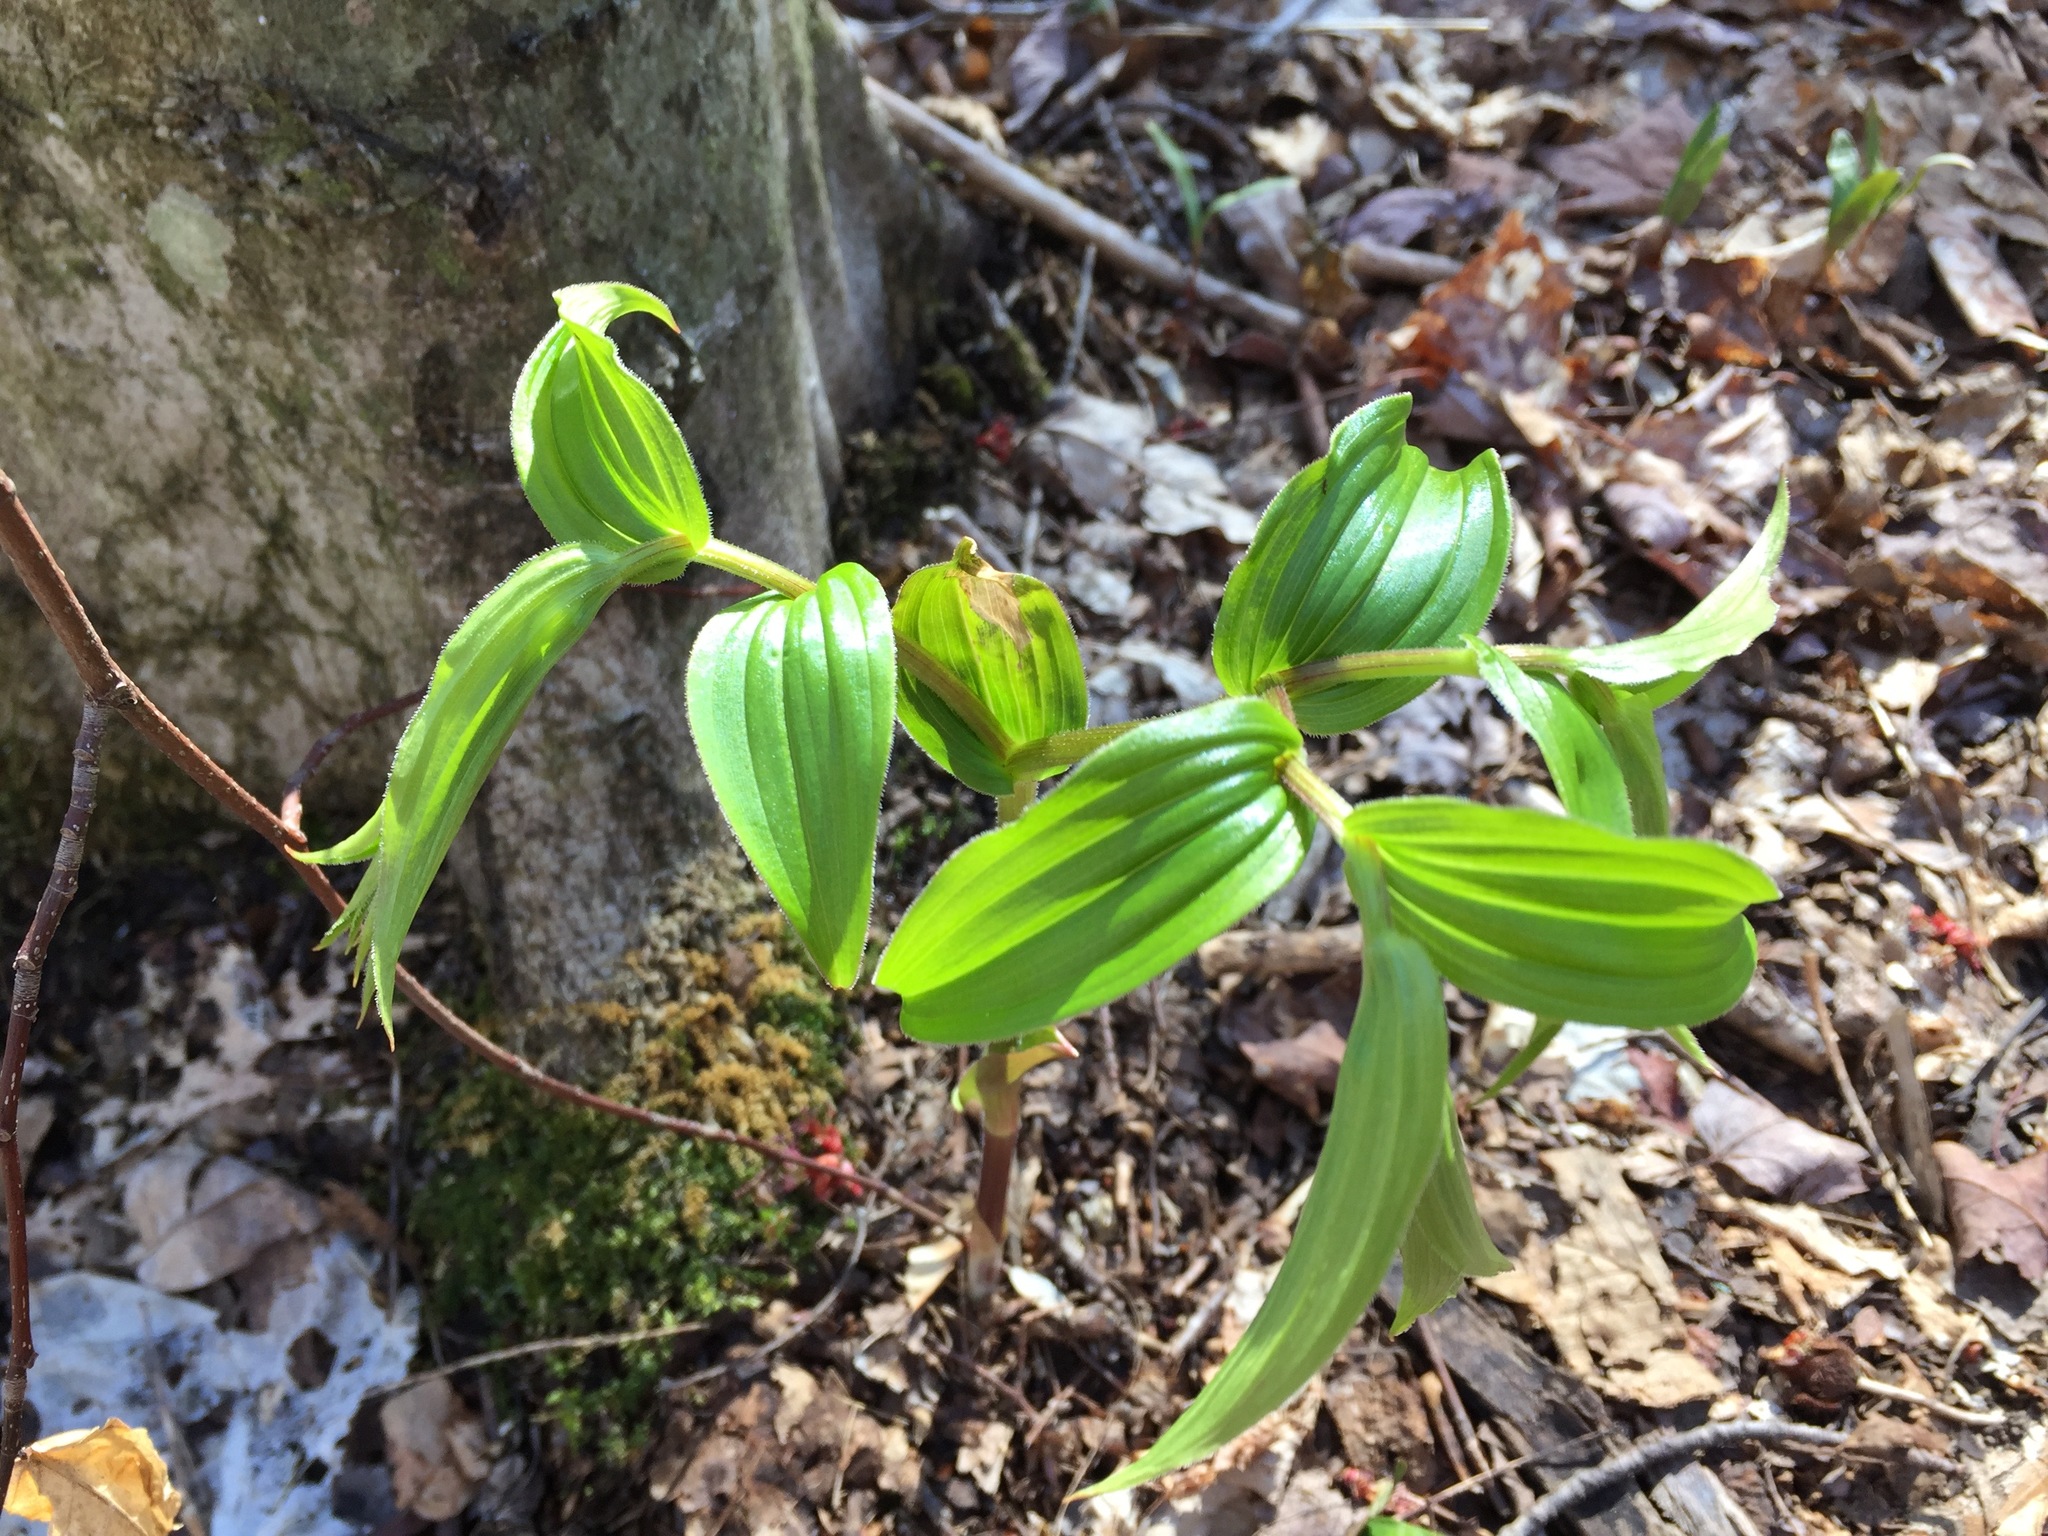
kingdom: Plantae
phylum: Tracheophyta
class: Liliopsida
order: Liliales
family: Liliaceae
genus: Streptopus
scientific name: Streptopus lanceolatus
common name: Rose mandarin
